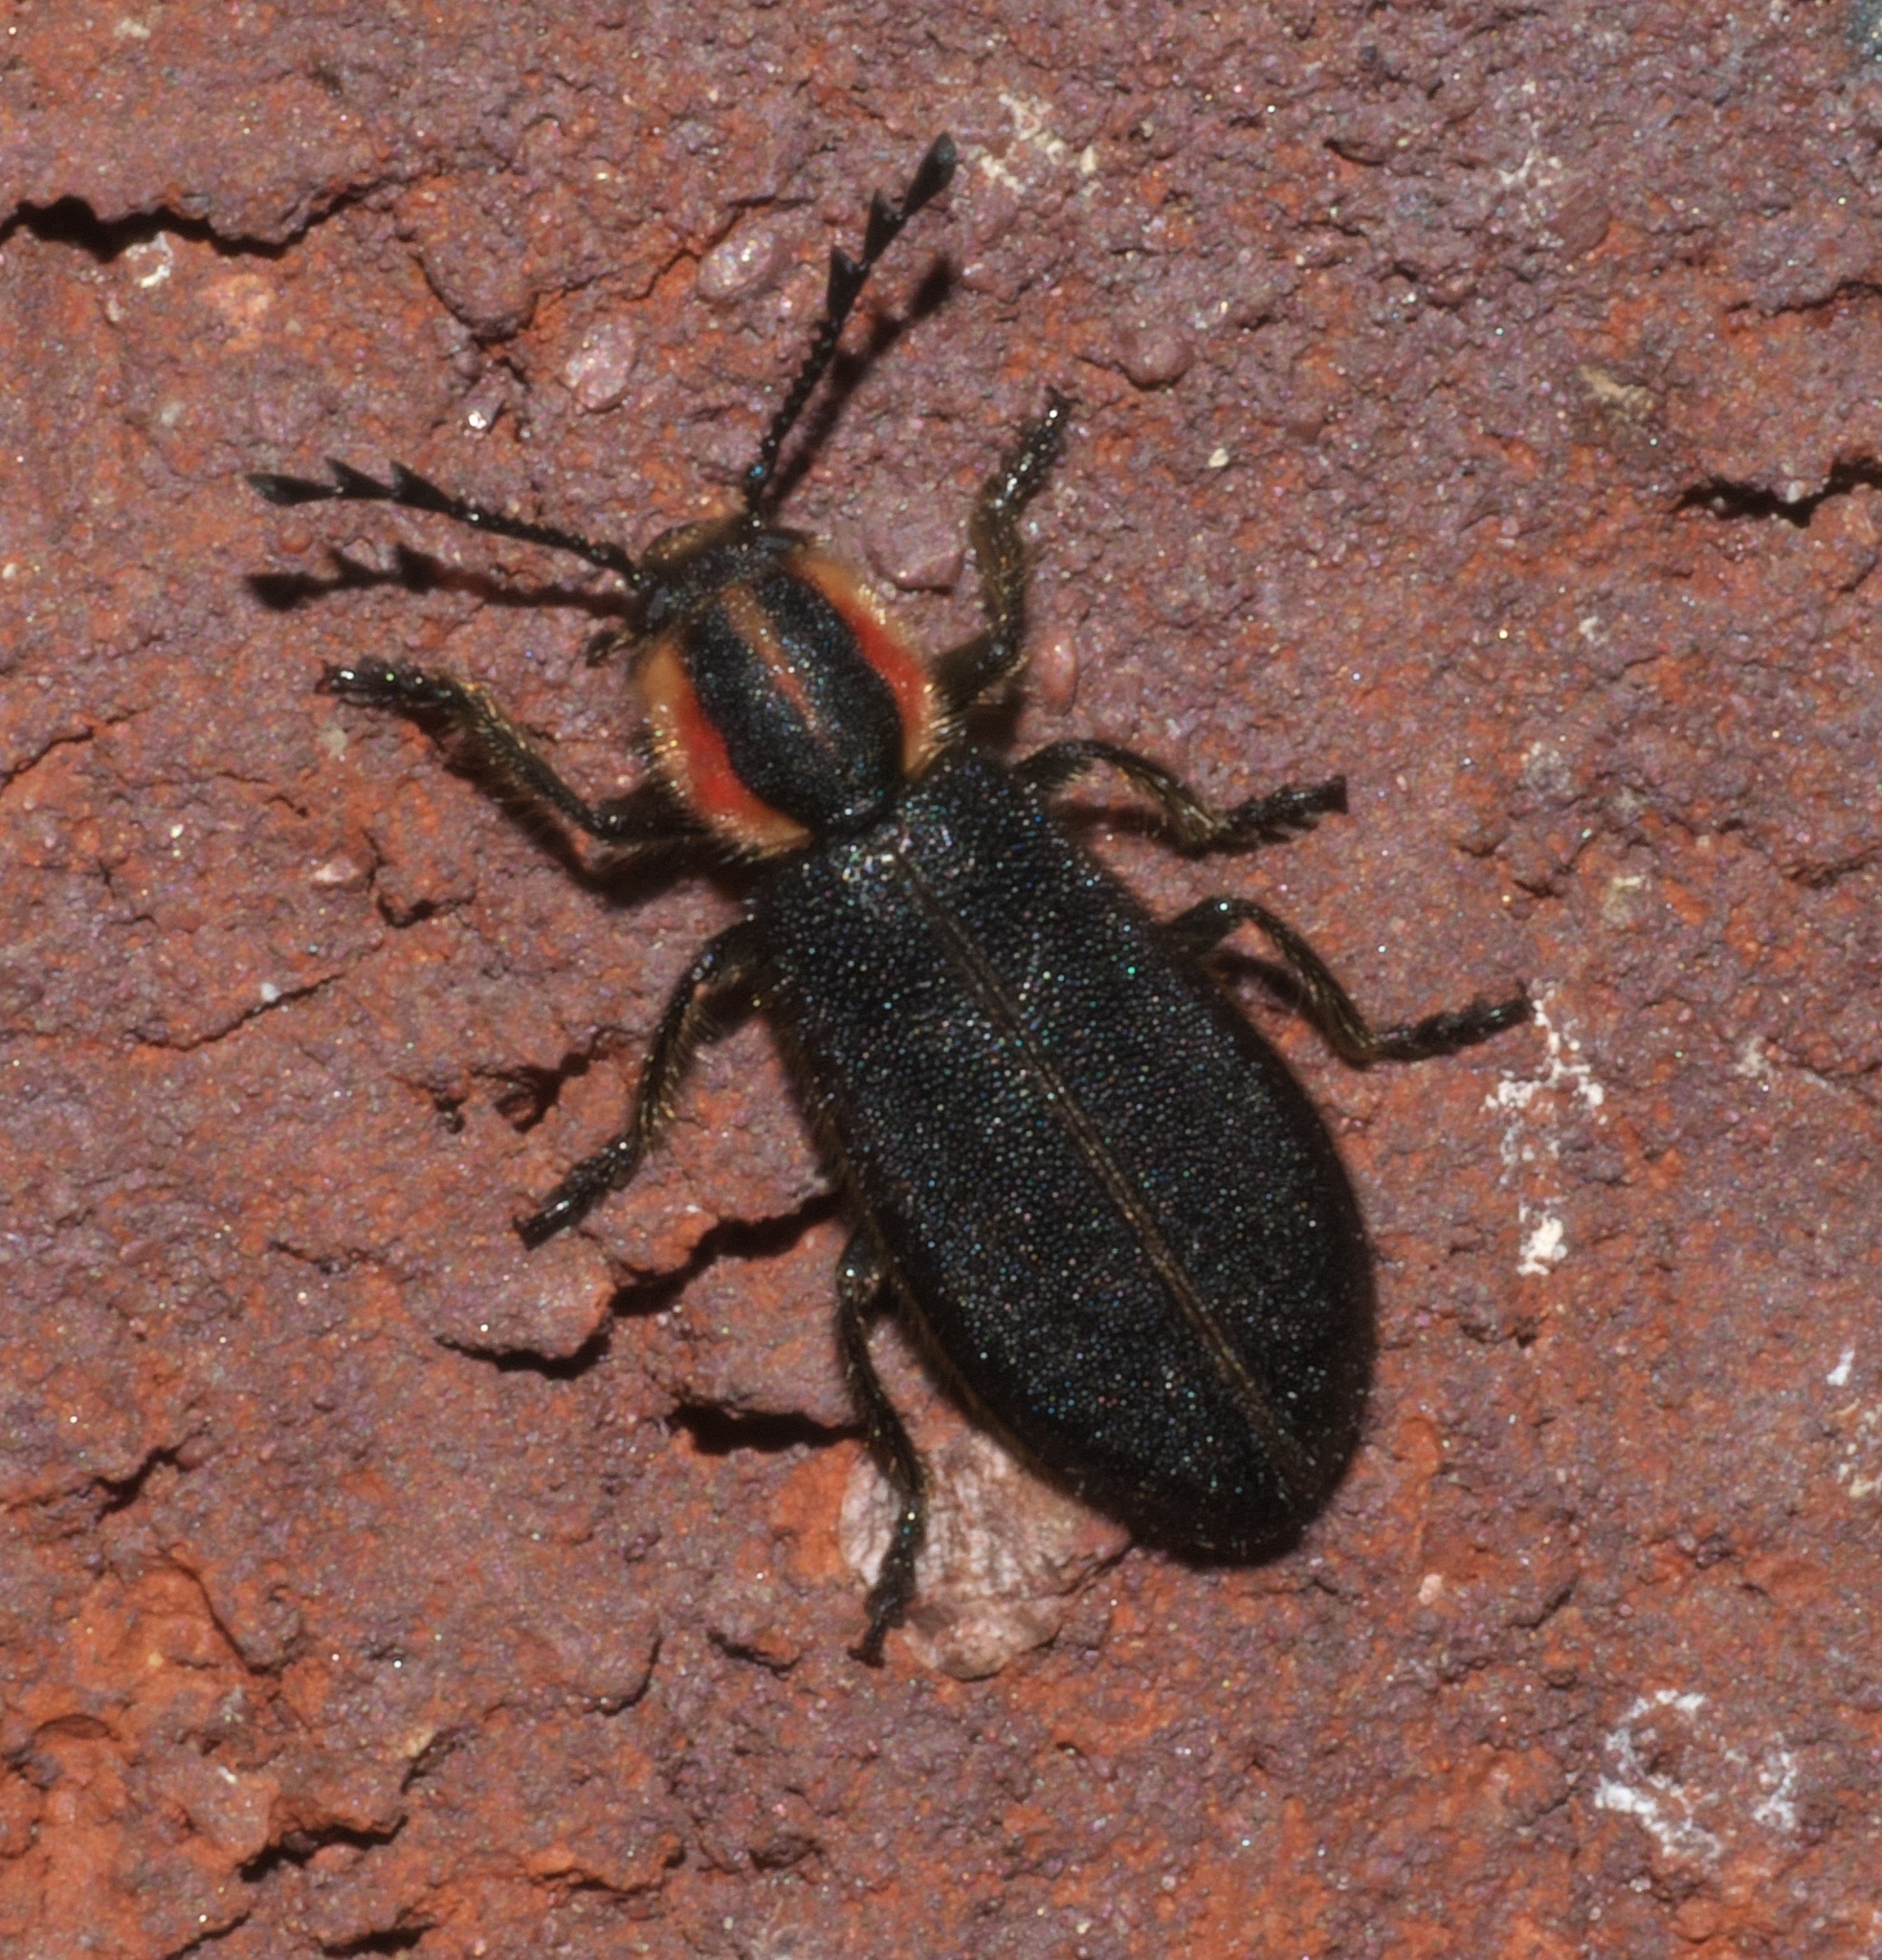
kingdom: Animalia
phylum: Arthropoda
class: Insecta
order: Coleoptera
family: Cleridae
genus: Chariessa
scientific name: Chariessa pilosa
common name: Pilose checkered beetle
